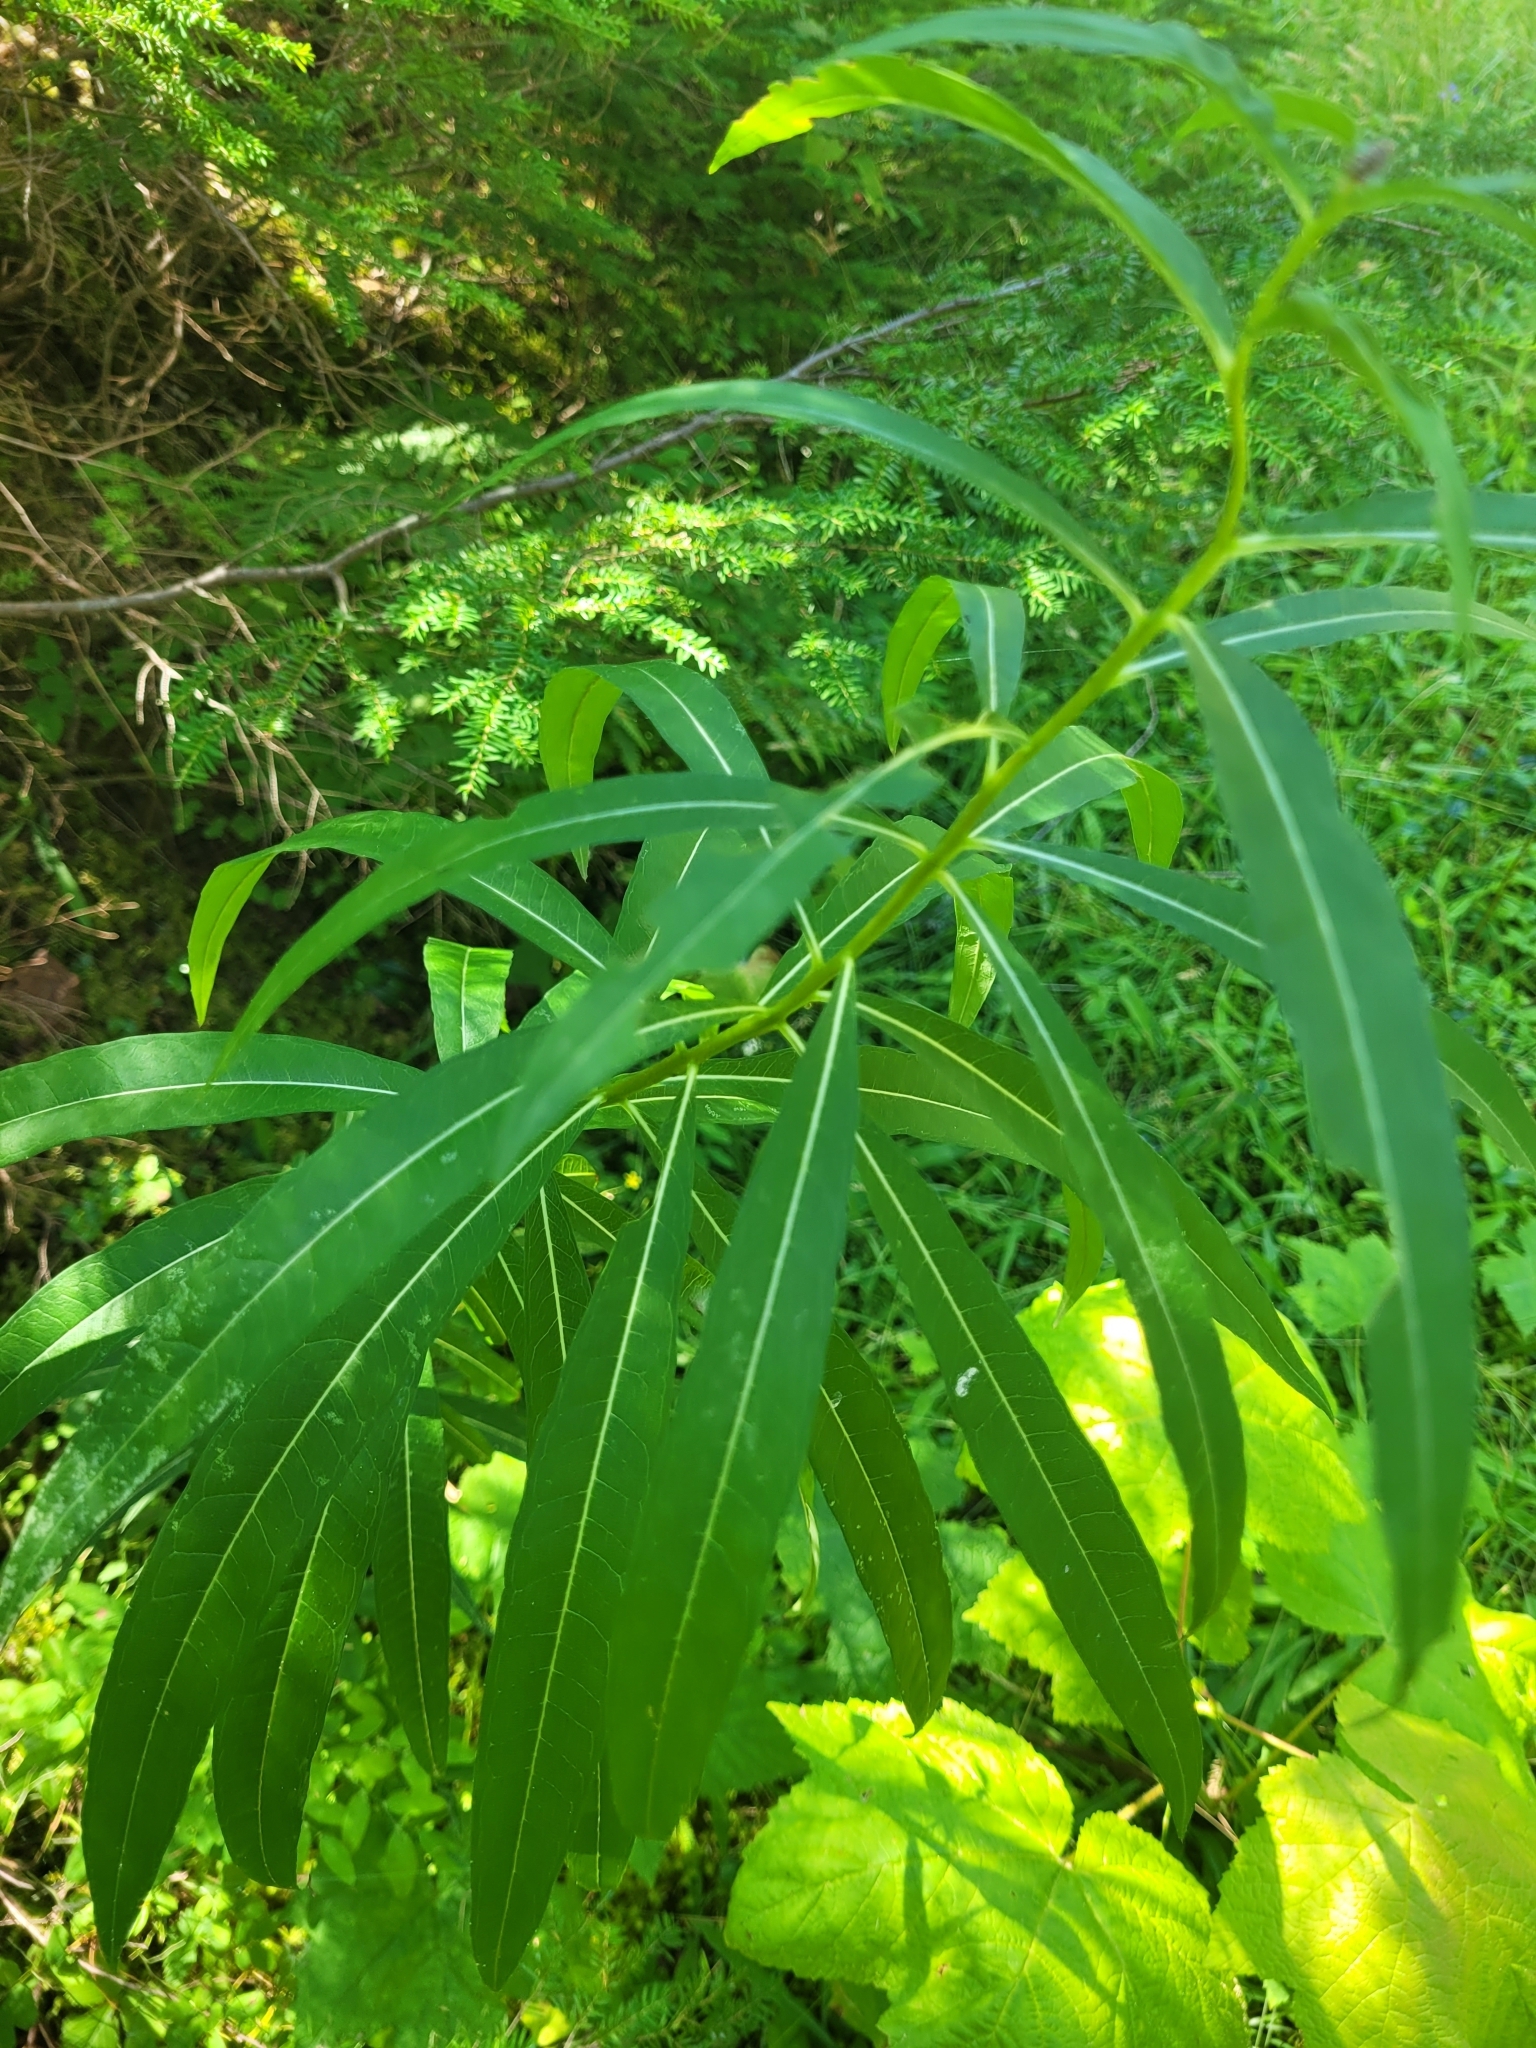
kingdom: Plantae
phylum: Tracheophyta
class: Magnoliopsida
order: Myrtales
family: Onagraceae
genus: Chamaenerion
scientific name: Chamaenerion angustifolium
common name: Fireweed
